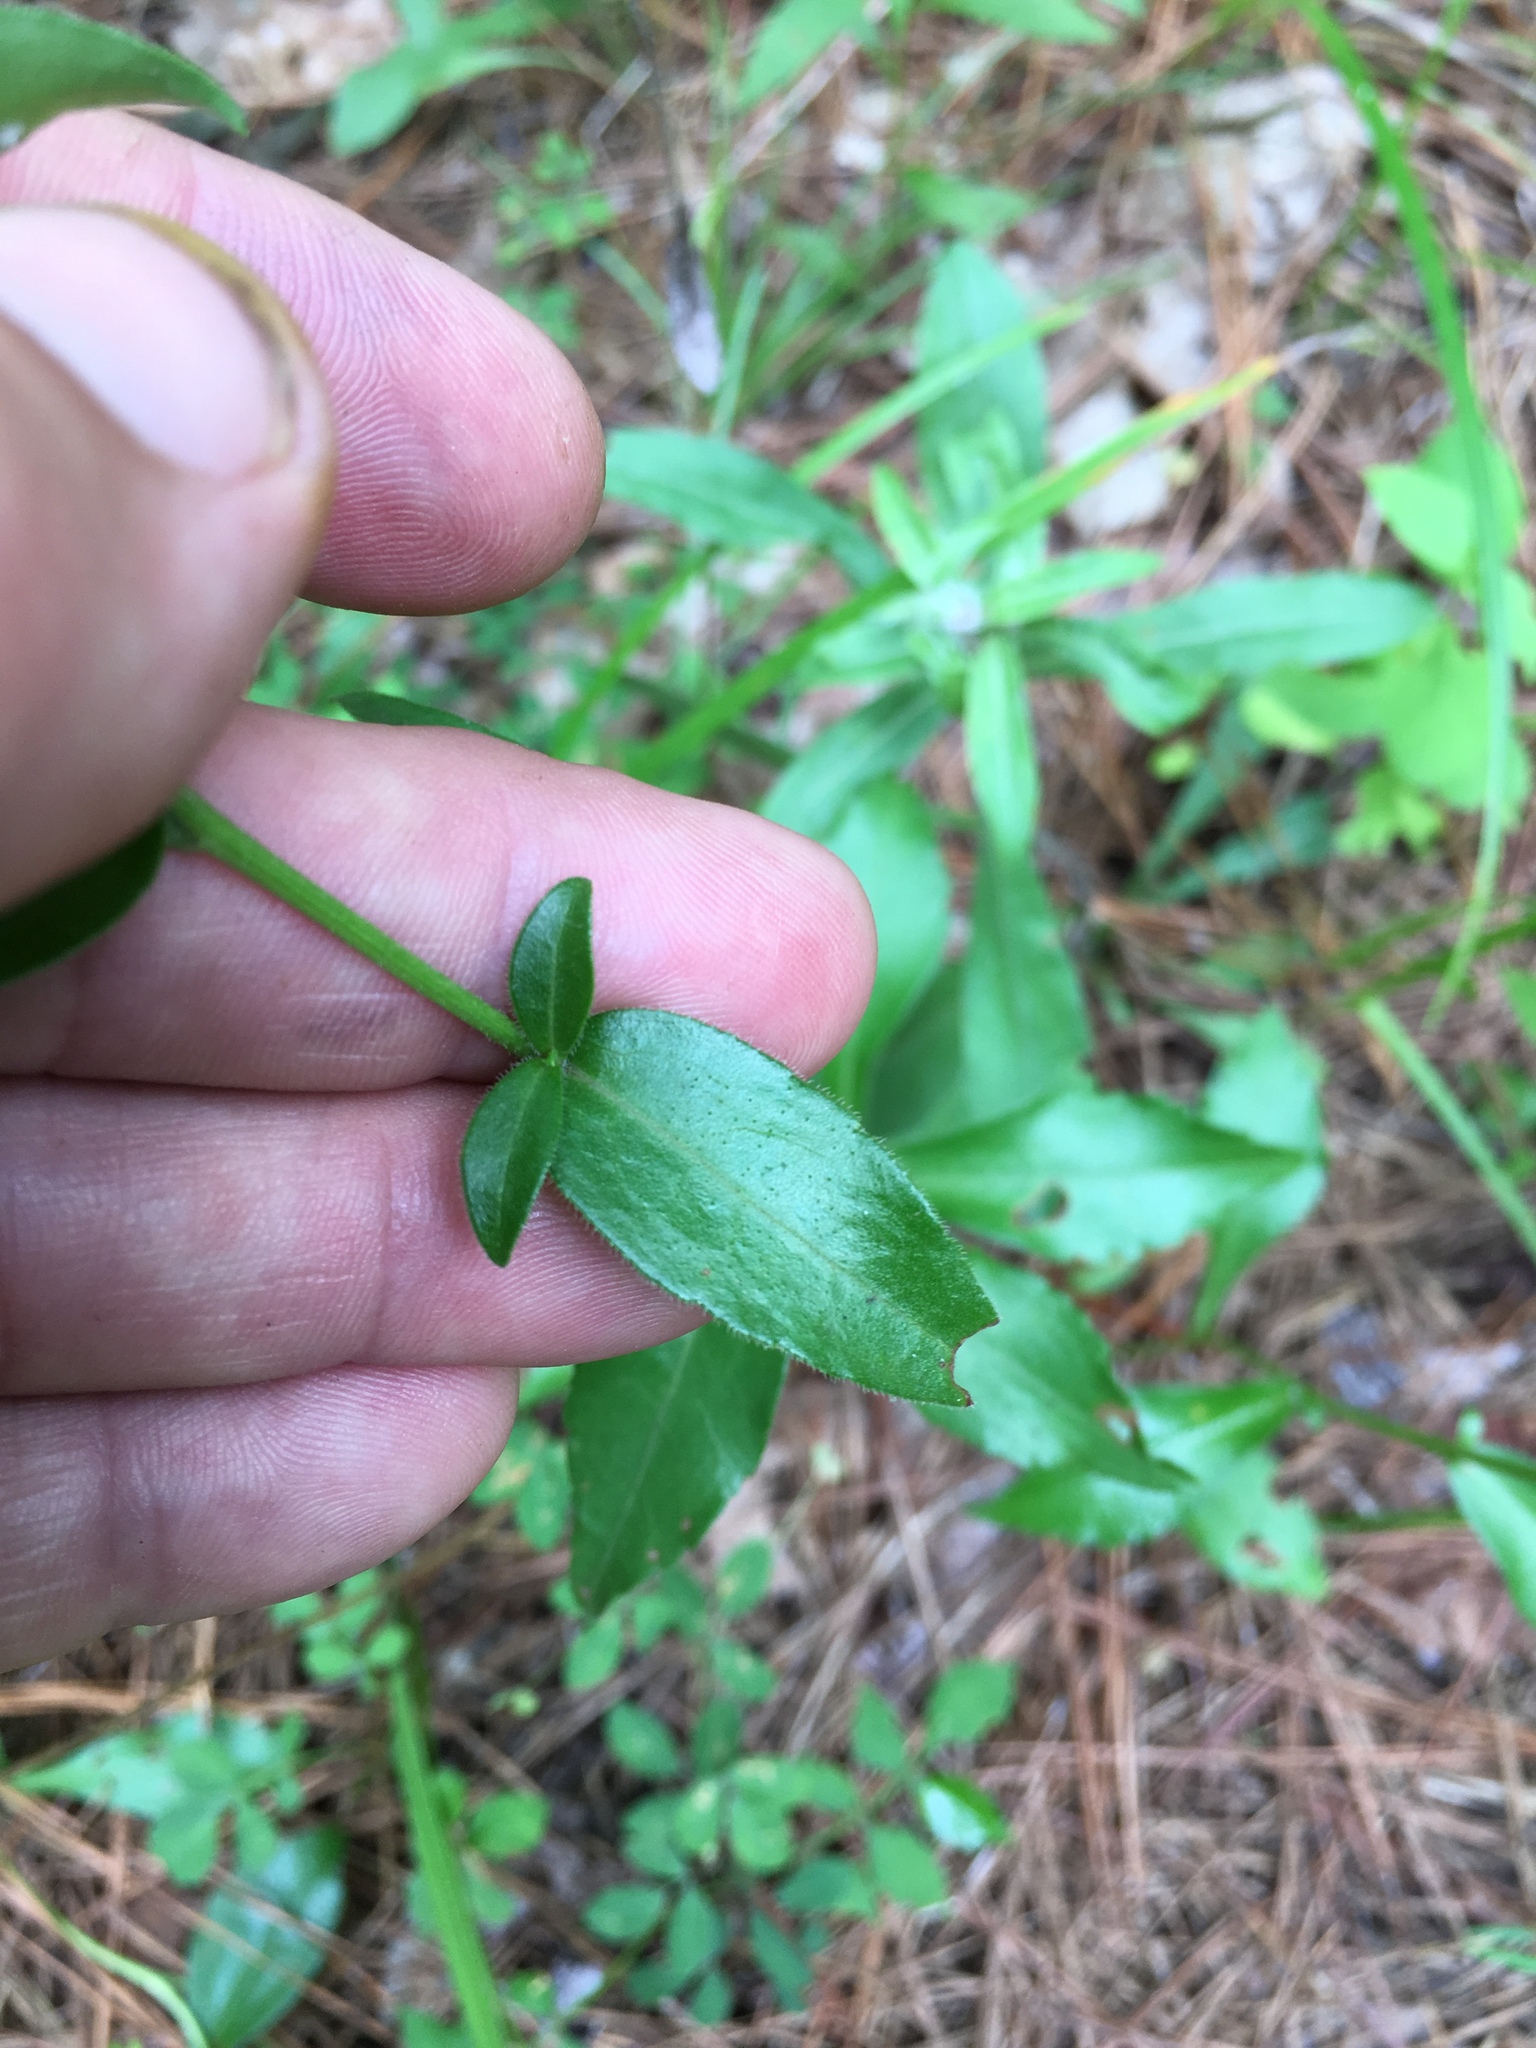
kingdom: Plantae
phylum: Tracheophyta
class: Magnoliopsida
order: Asterales
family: Asteraceae
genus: Sericocarpus
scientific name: Sericocarpus asteroides
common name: Toothed white-top aster
